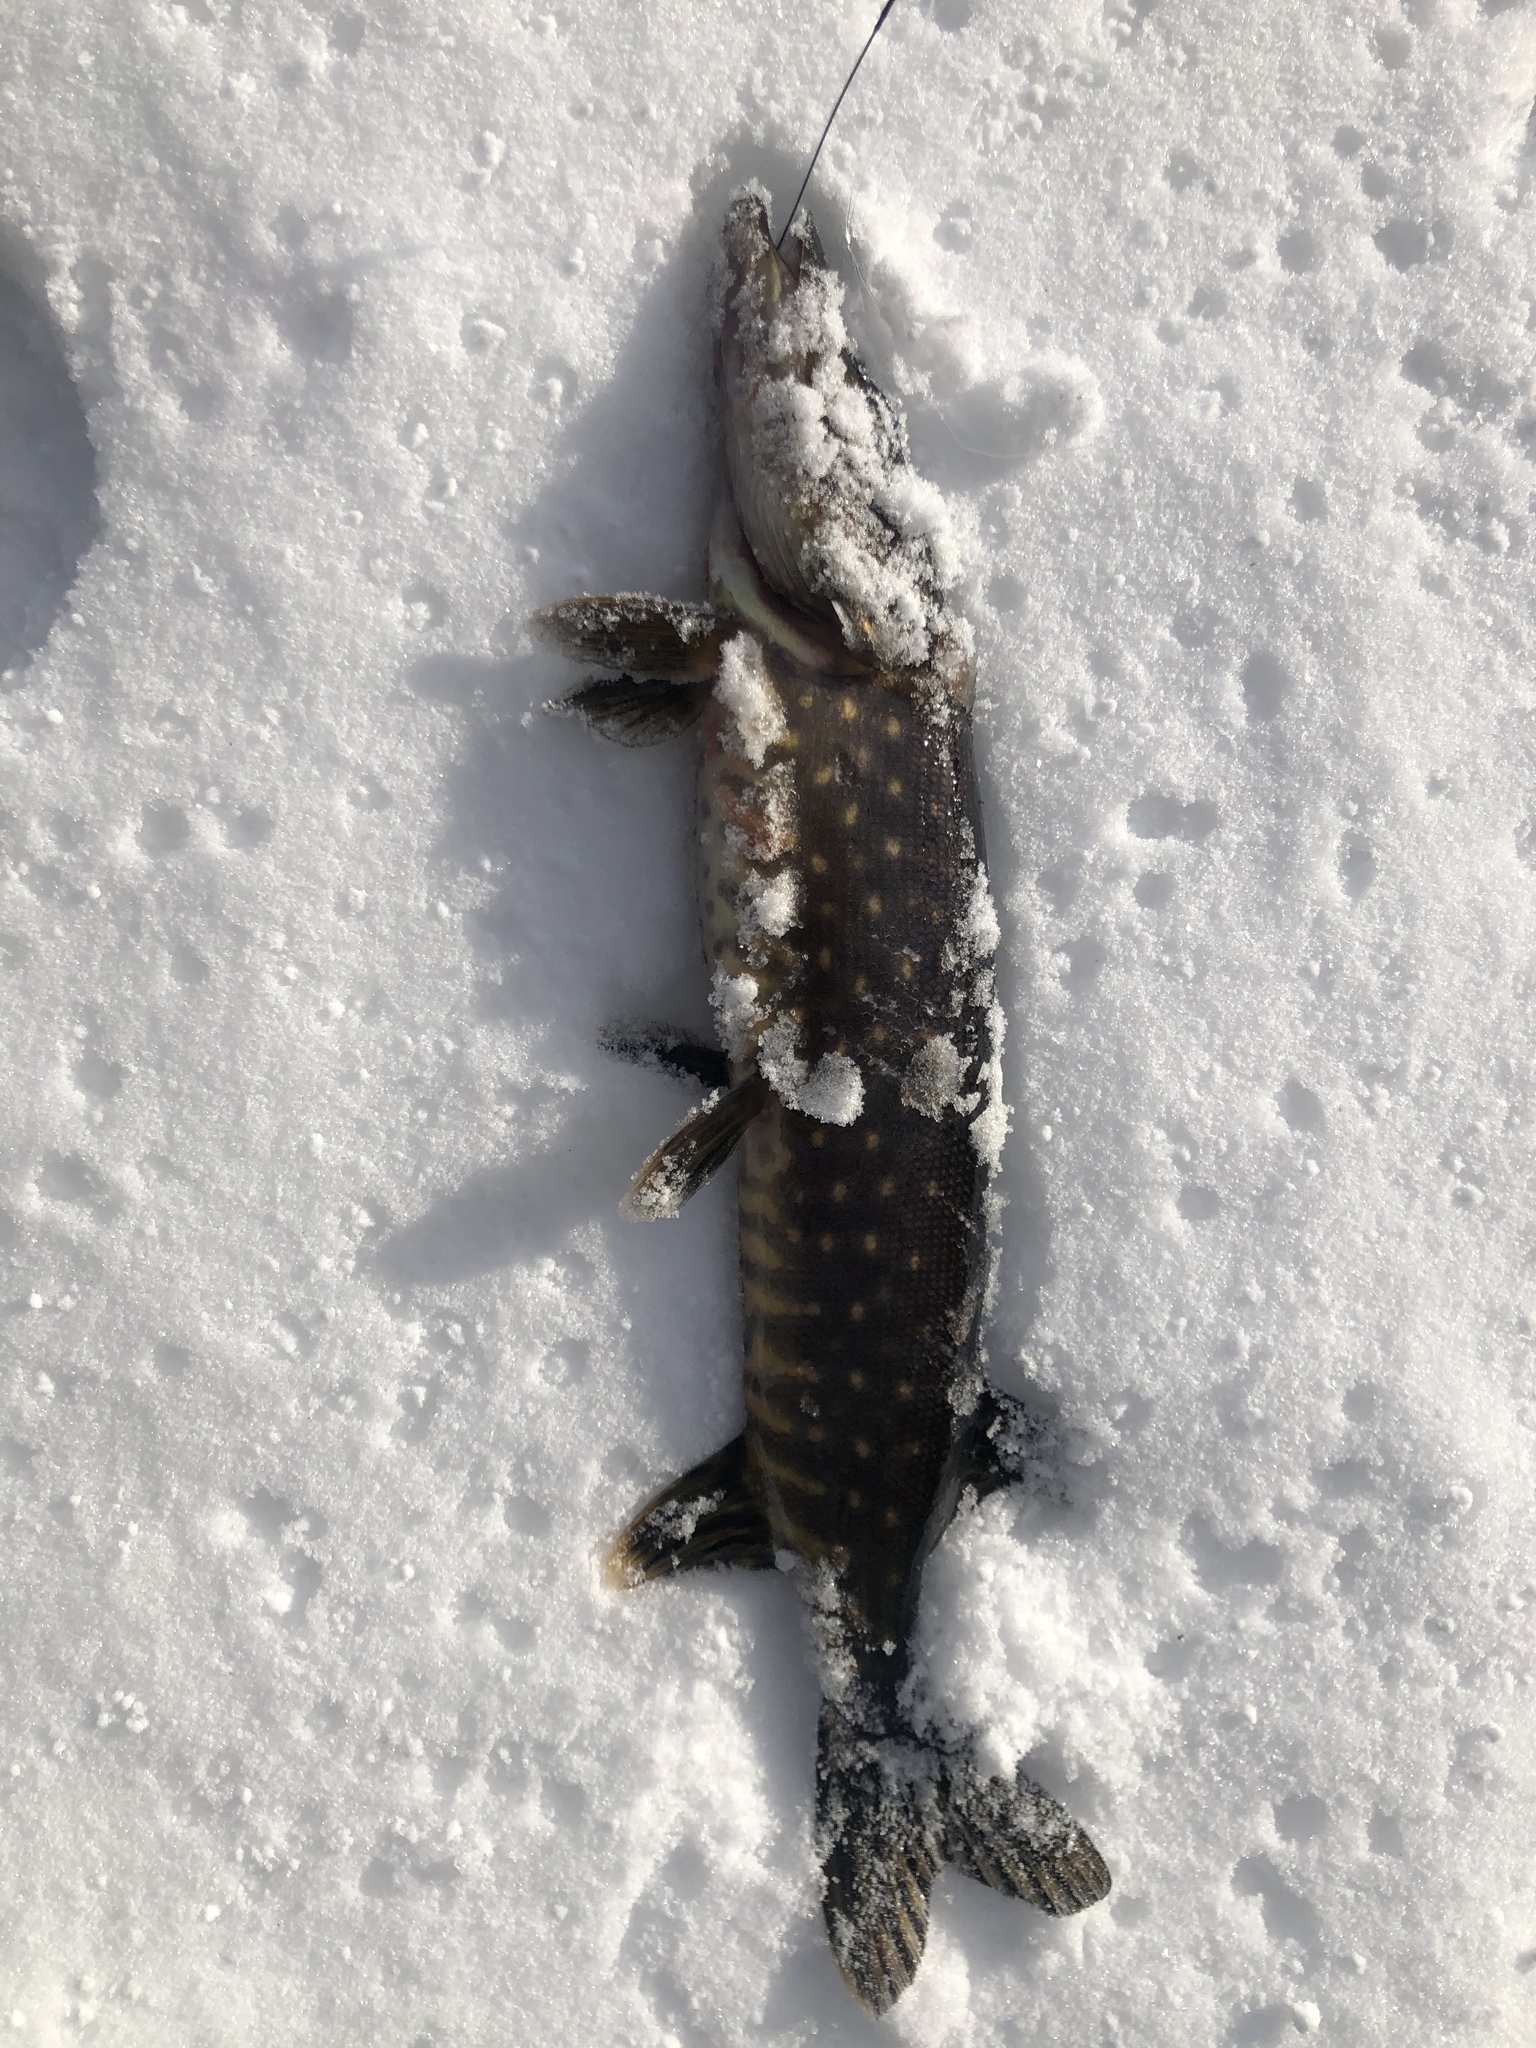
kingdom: Animalia
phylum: Chordata
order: Esociformes
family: Esocidae
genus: Esox
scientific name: Esox lucius
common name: Northern pike
